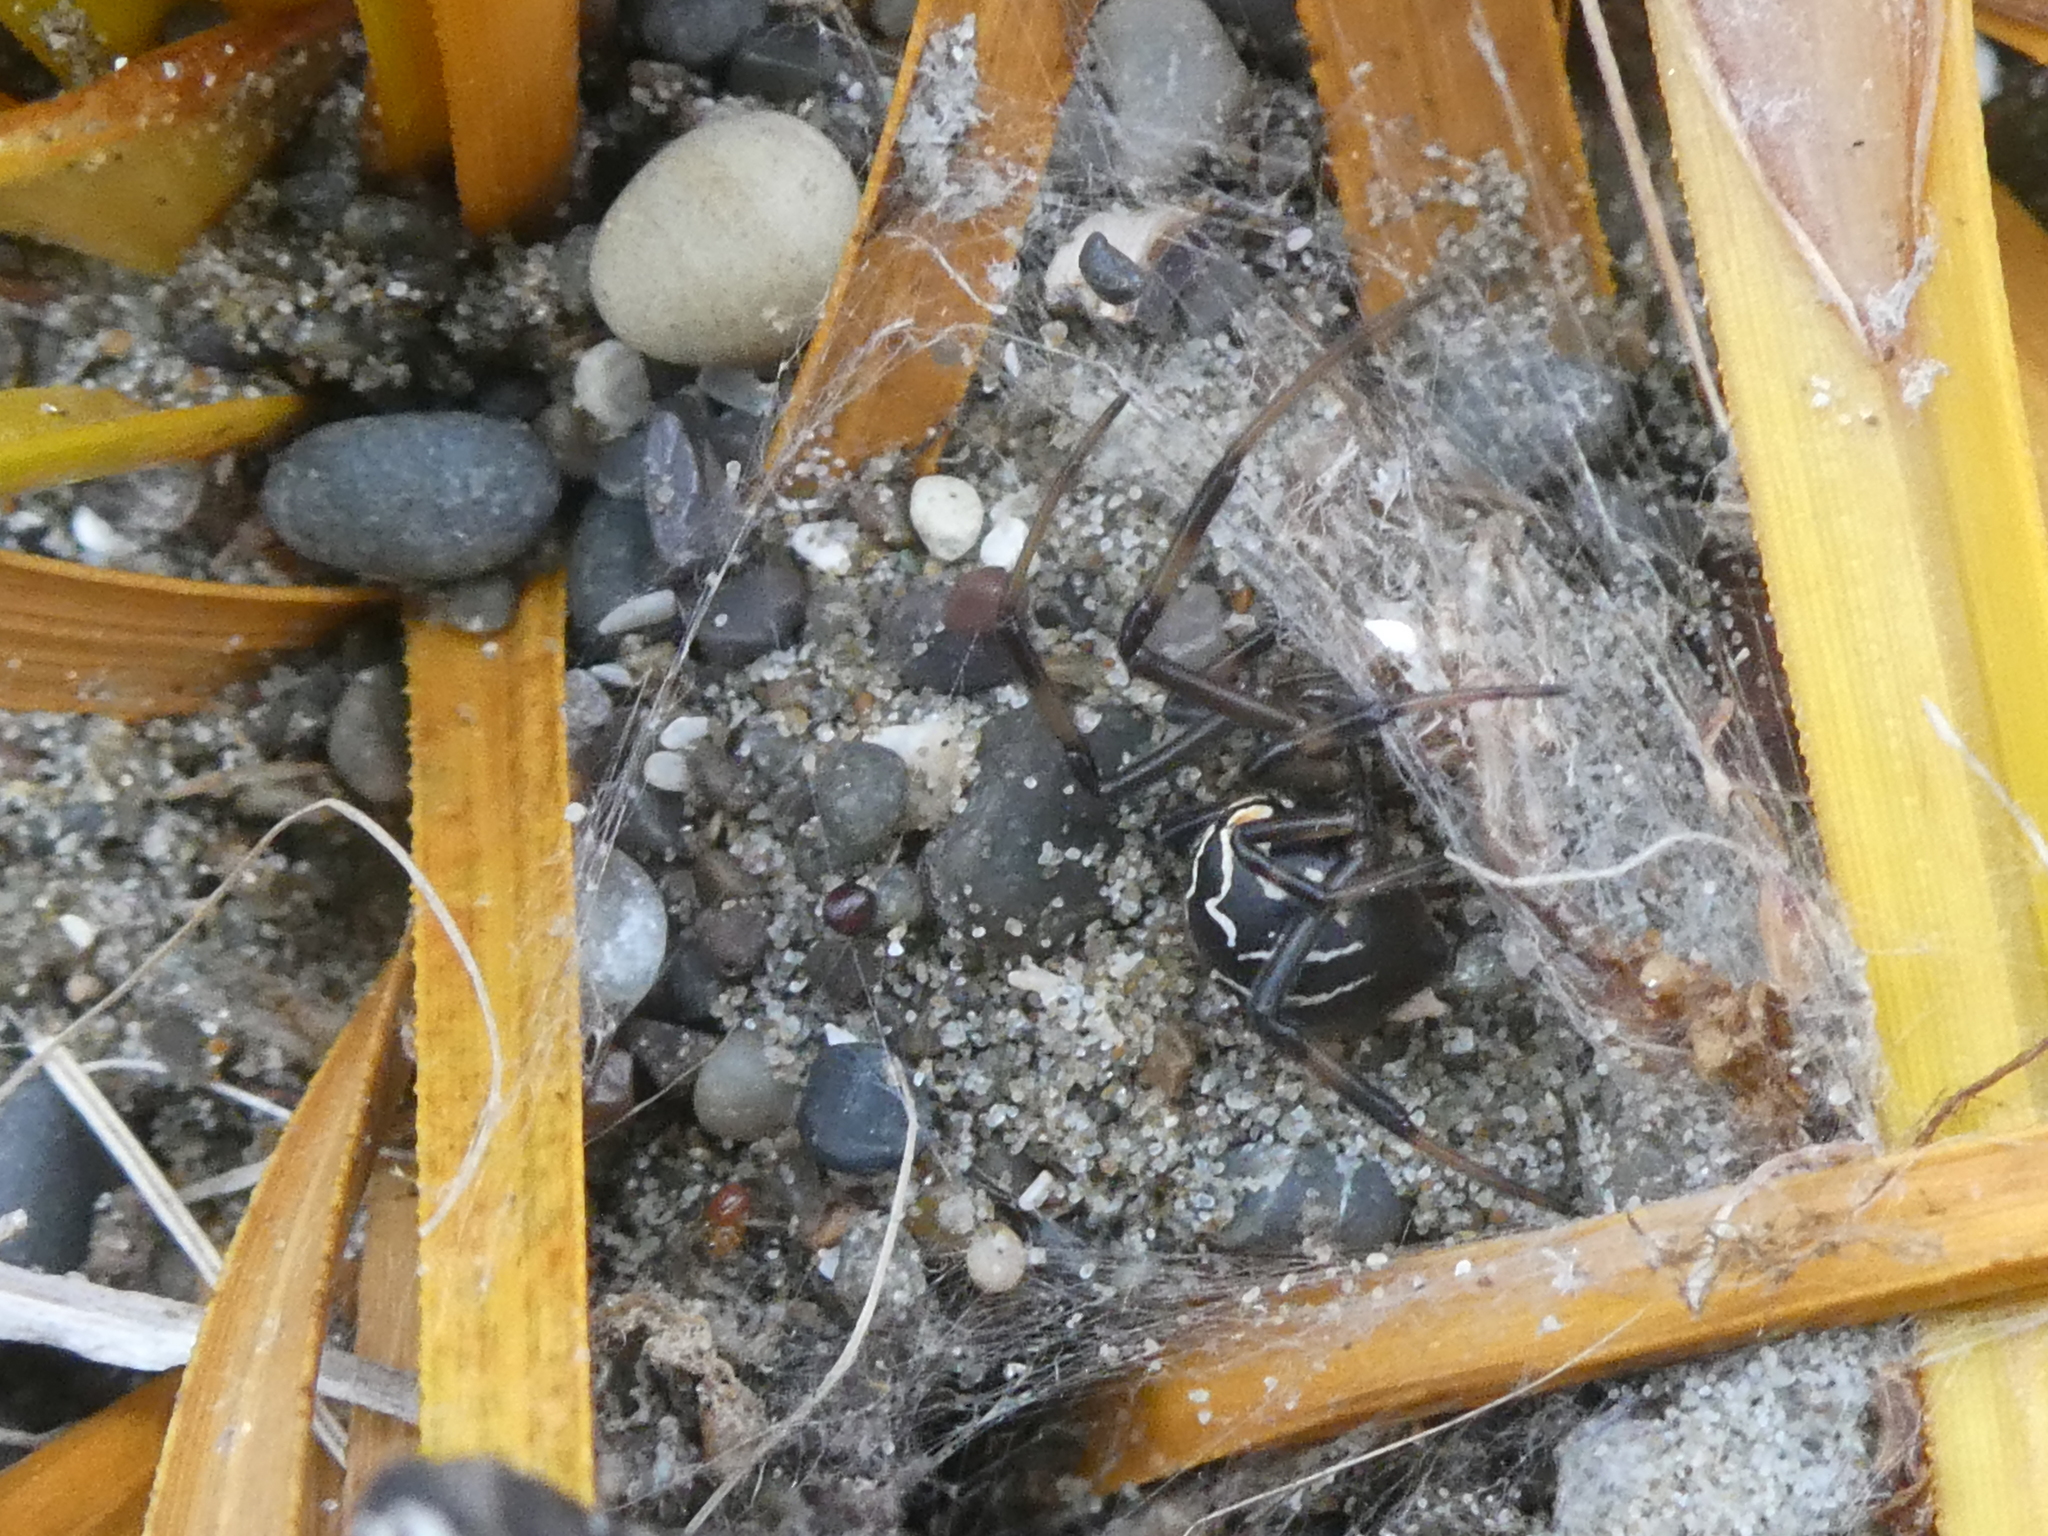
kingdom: Animalia
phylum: Arthropoda
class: Arachnida
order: Araneae
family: Theridiidae
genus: Latrodectus
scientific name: Latrodectus katipo
